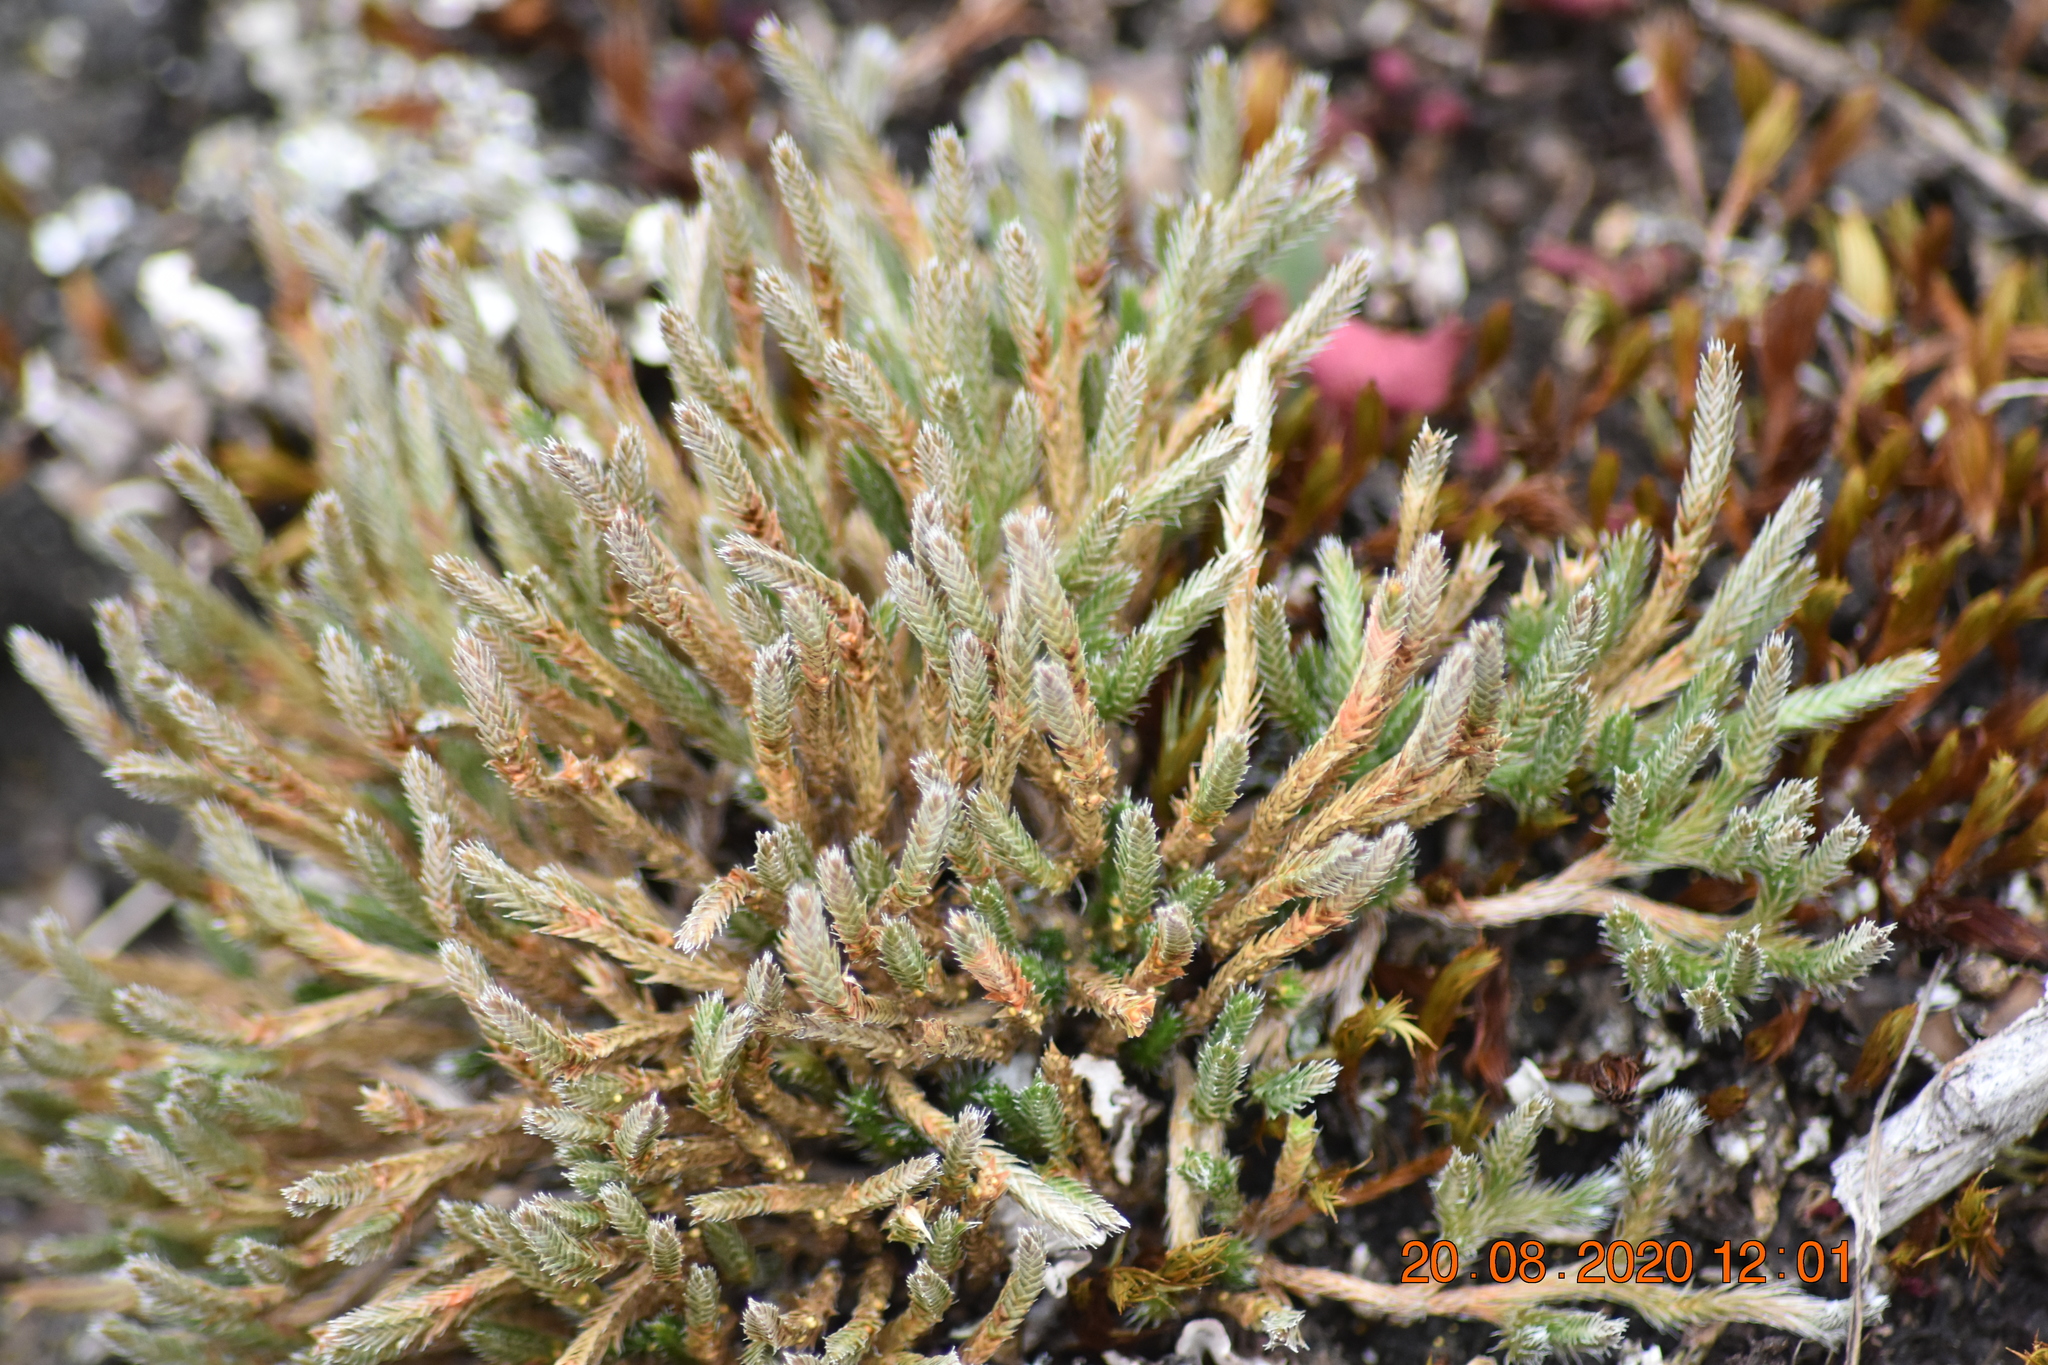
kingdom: Plantae
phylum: Tracheophyta
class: Lycopodiopsida
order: Selaginellales
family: Selaginellaceae
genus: Selaginella
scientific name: Selaginella rupestris
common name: Dwarf spikemoss
